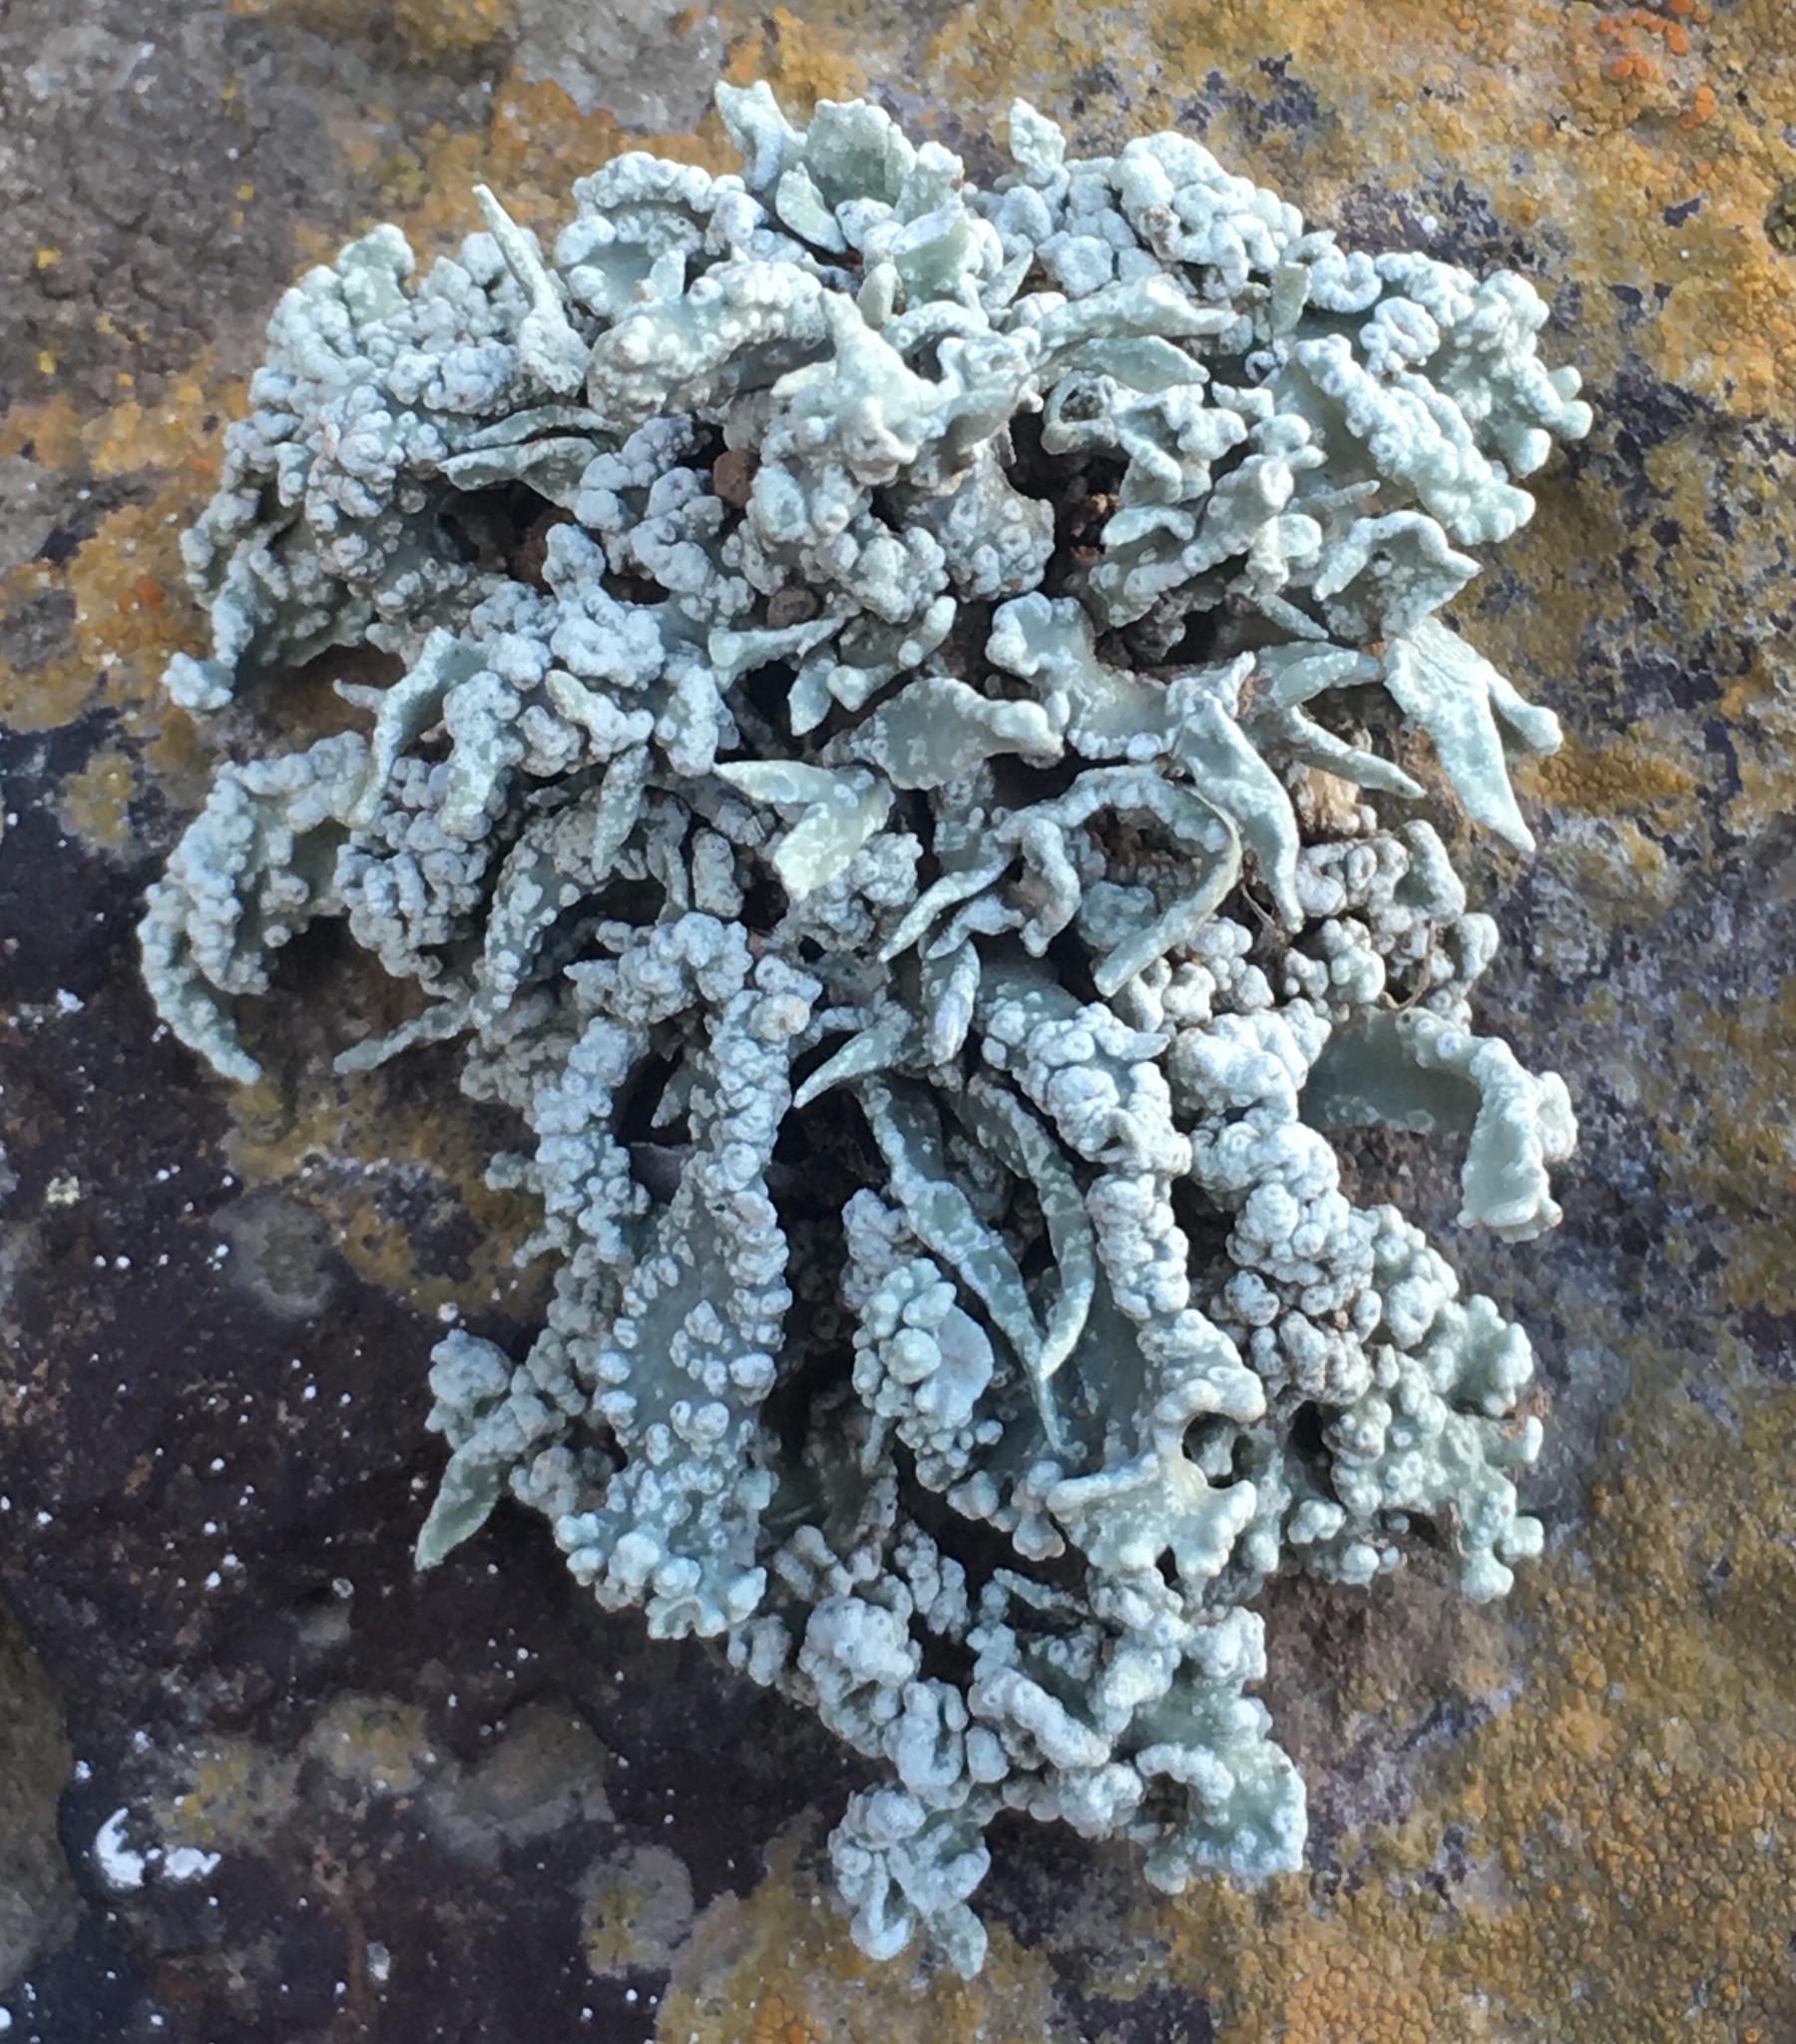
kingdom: Fungi
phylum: Ascomycota
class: Lecanoromycetes
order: Lecanorales
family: Ramalinaceae
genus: Niebla
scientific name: Niebla polymorpha
